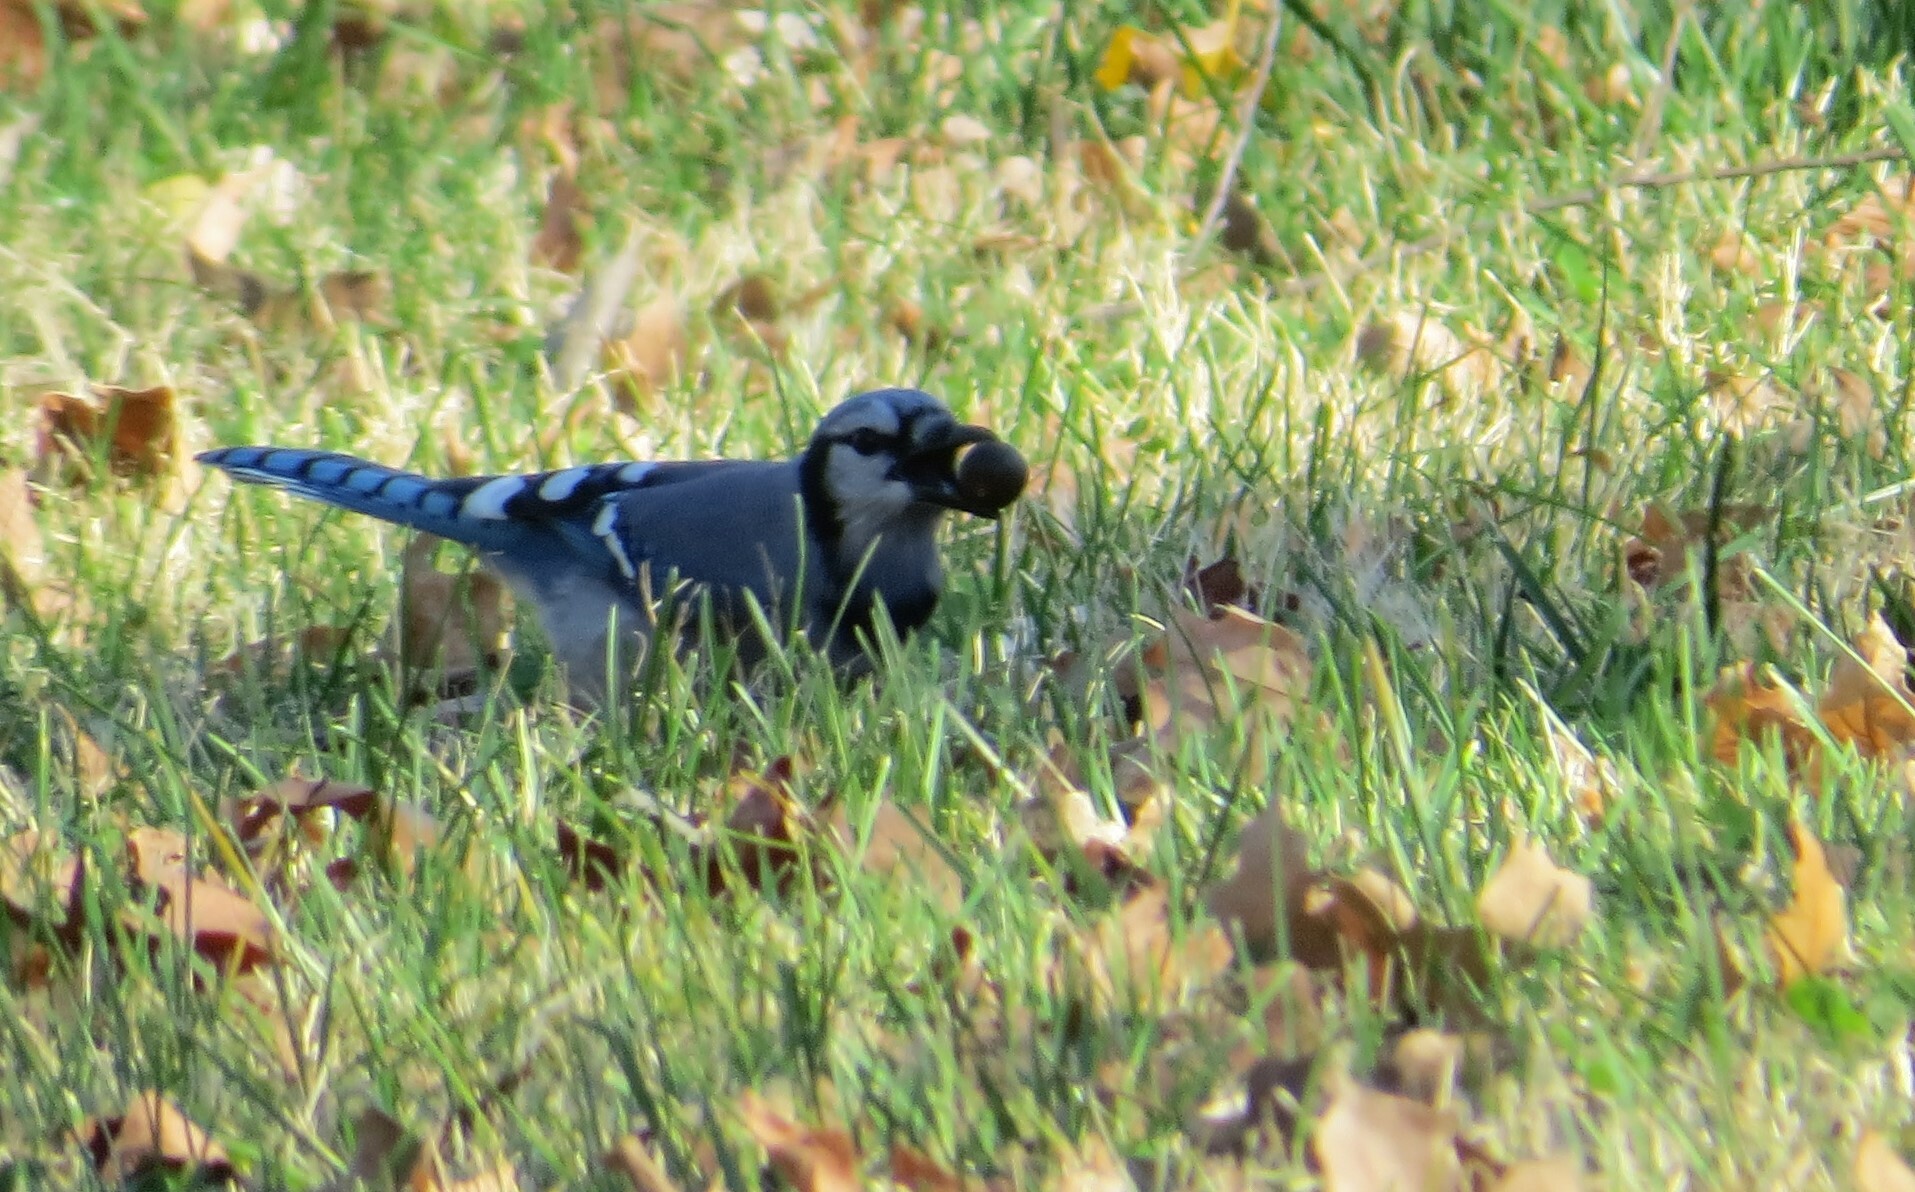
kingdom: Animalia
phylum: Chordata
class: Aves
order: Passeriformes
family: Corvidae
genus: Cyanocitta
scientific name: Cyanocitta cristata
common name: Blue jay
